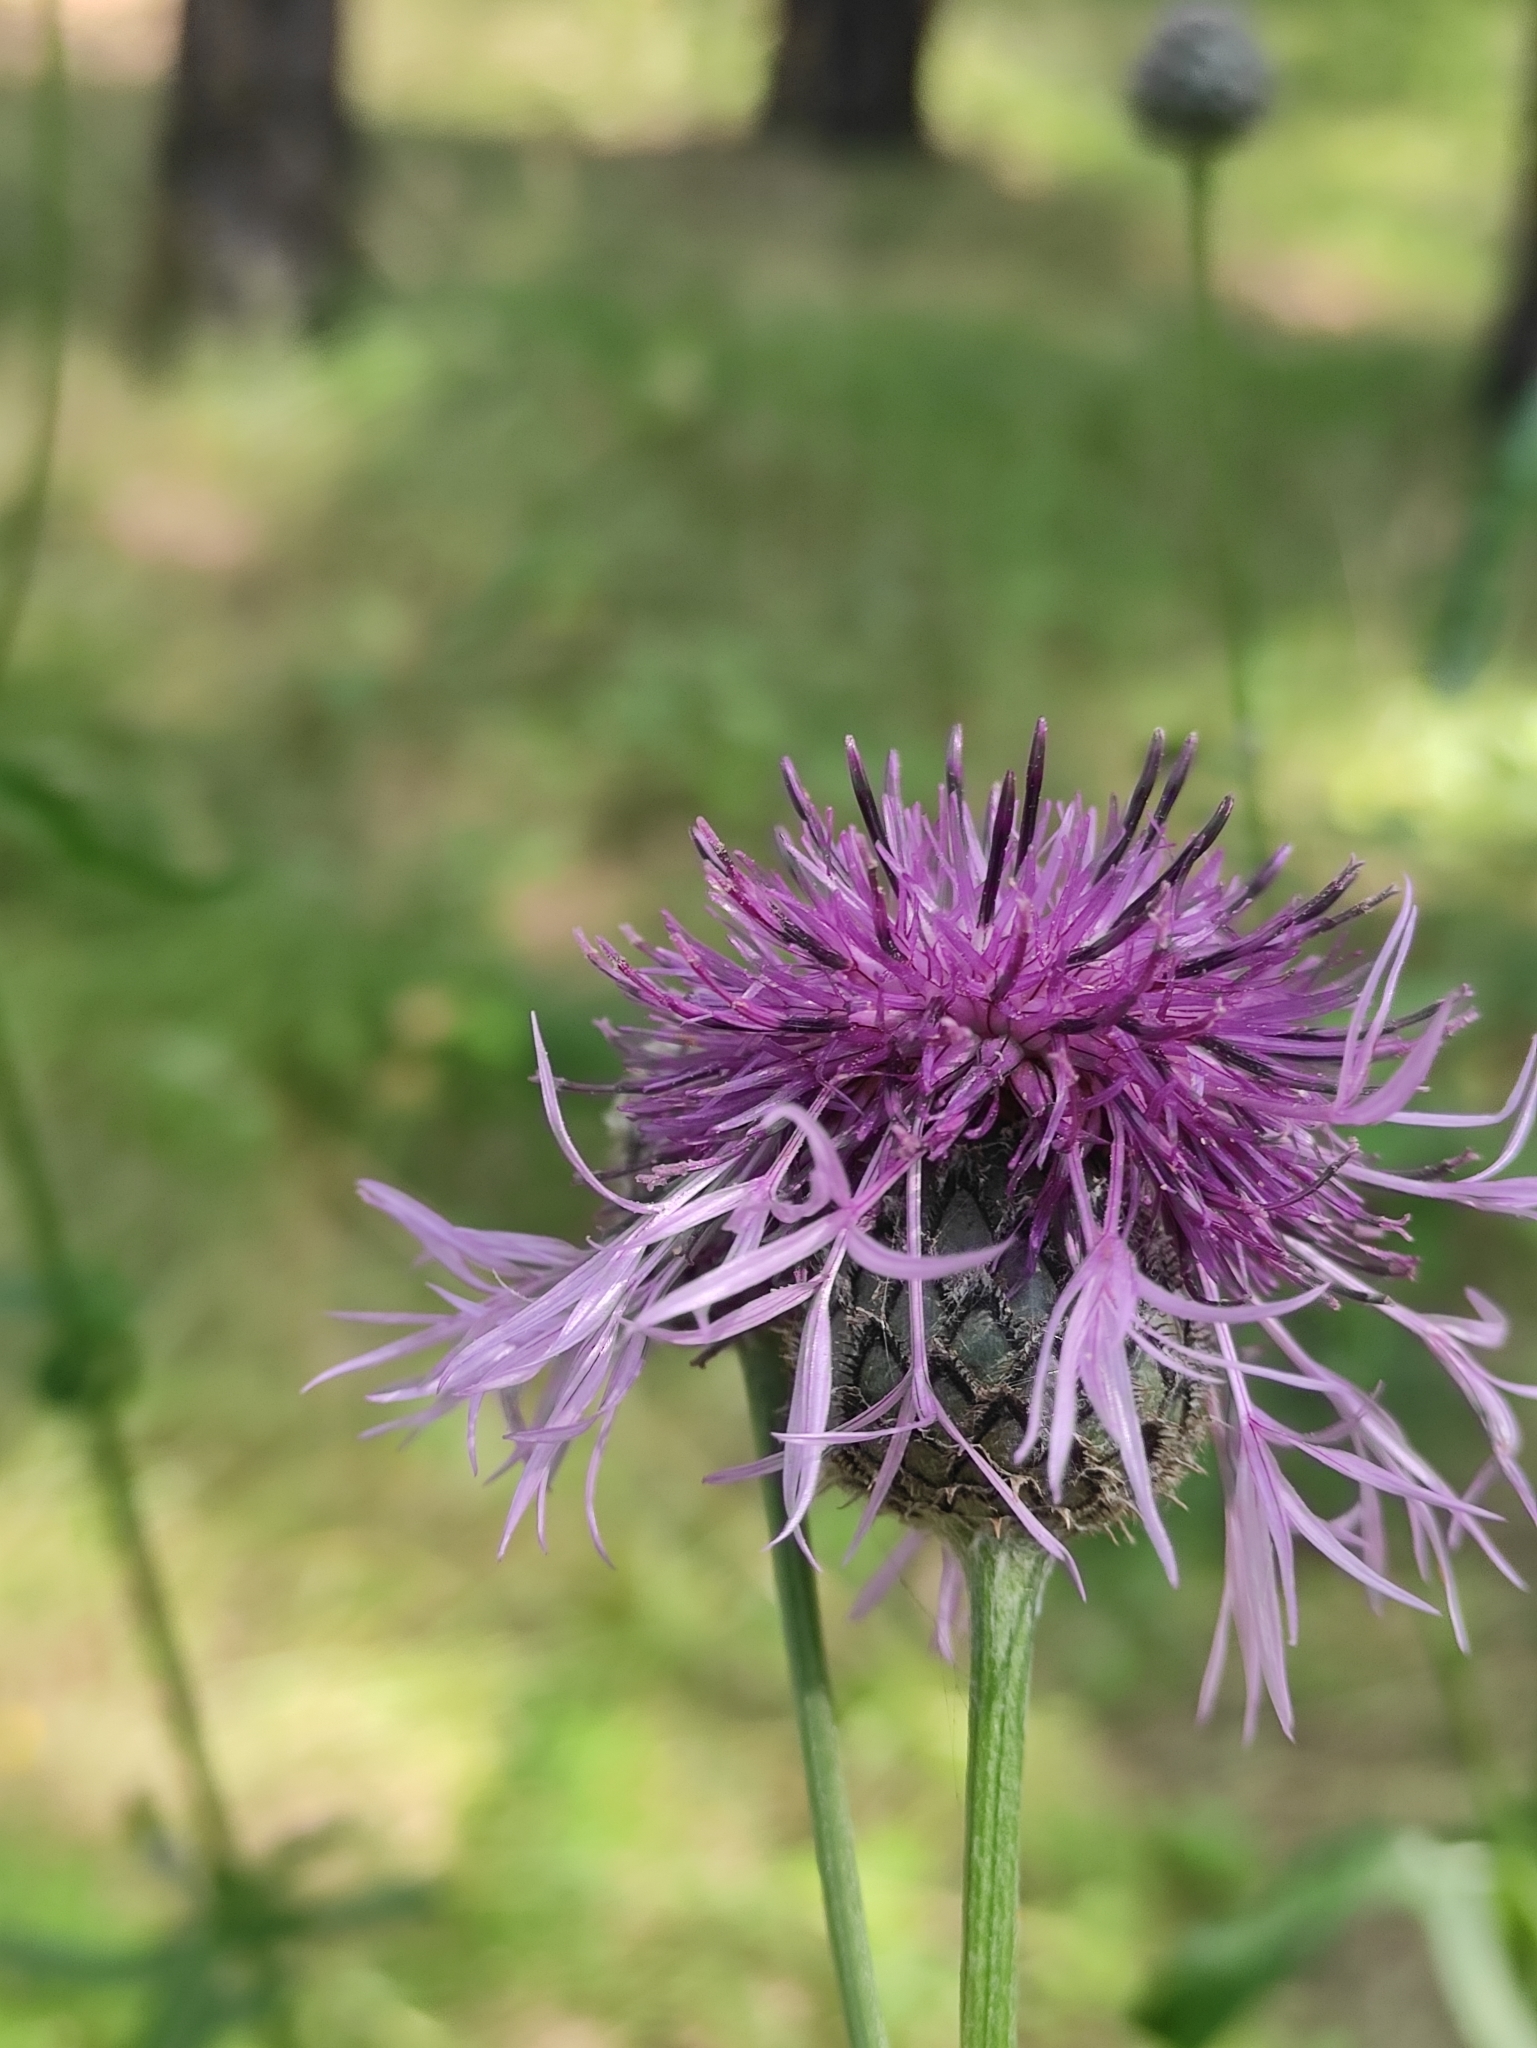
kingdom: Plantae
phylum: Tracheophyta
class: Magnoliopsida
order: Asterales
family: Asteraceae
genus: Centaurea
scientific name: Centaurea scabiosa
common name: Greater knapweed
